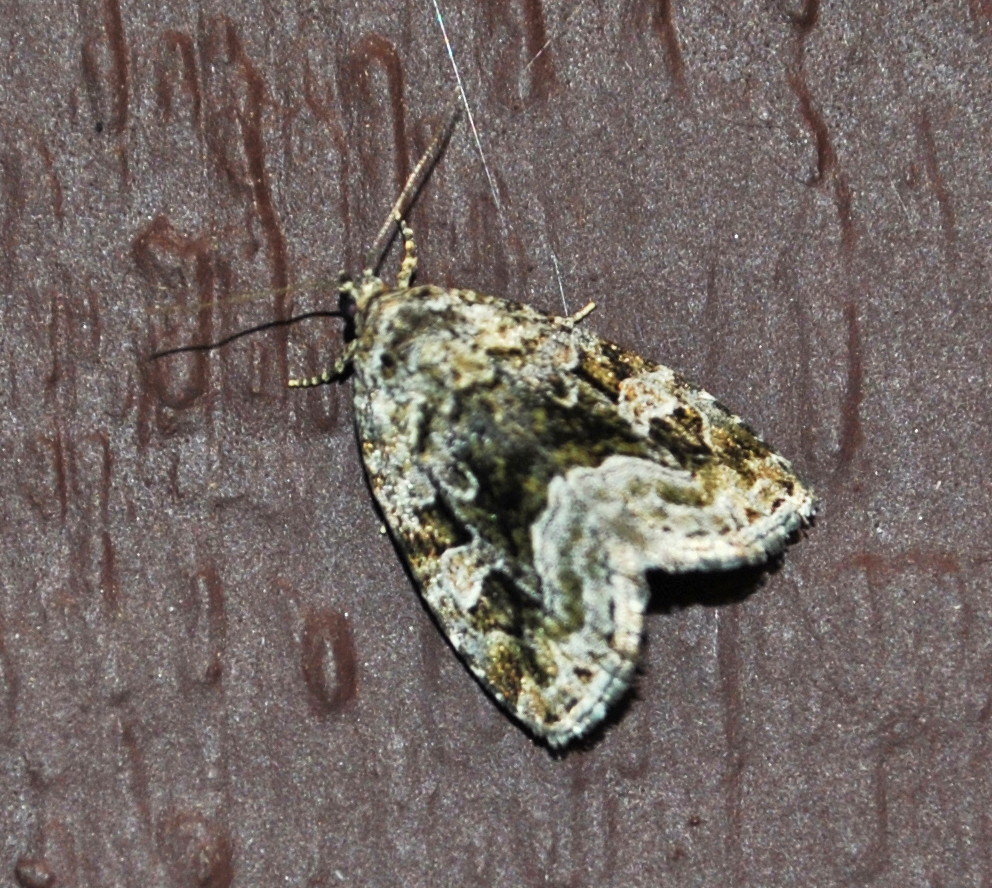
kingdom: Animalia
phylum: Arthropoda
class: Insecta
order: Lepidoptera
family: Noctuidae
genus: Protodeltote
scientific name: Protodeltote muscosula
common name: Large mossy glyph
